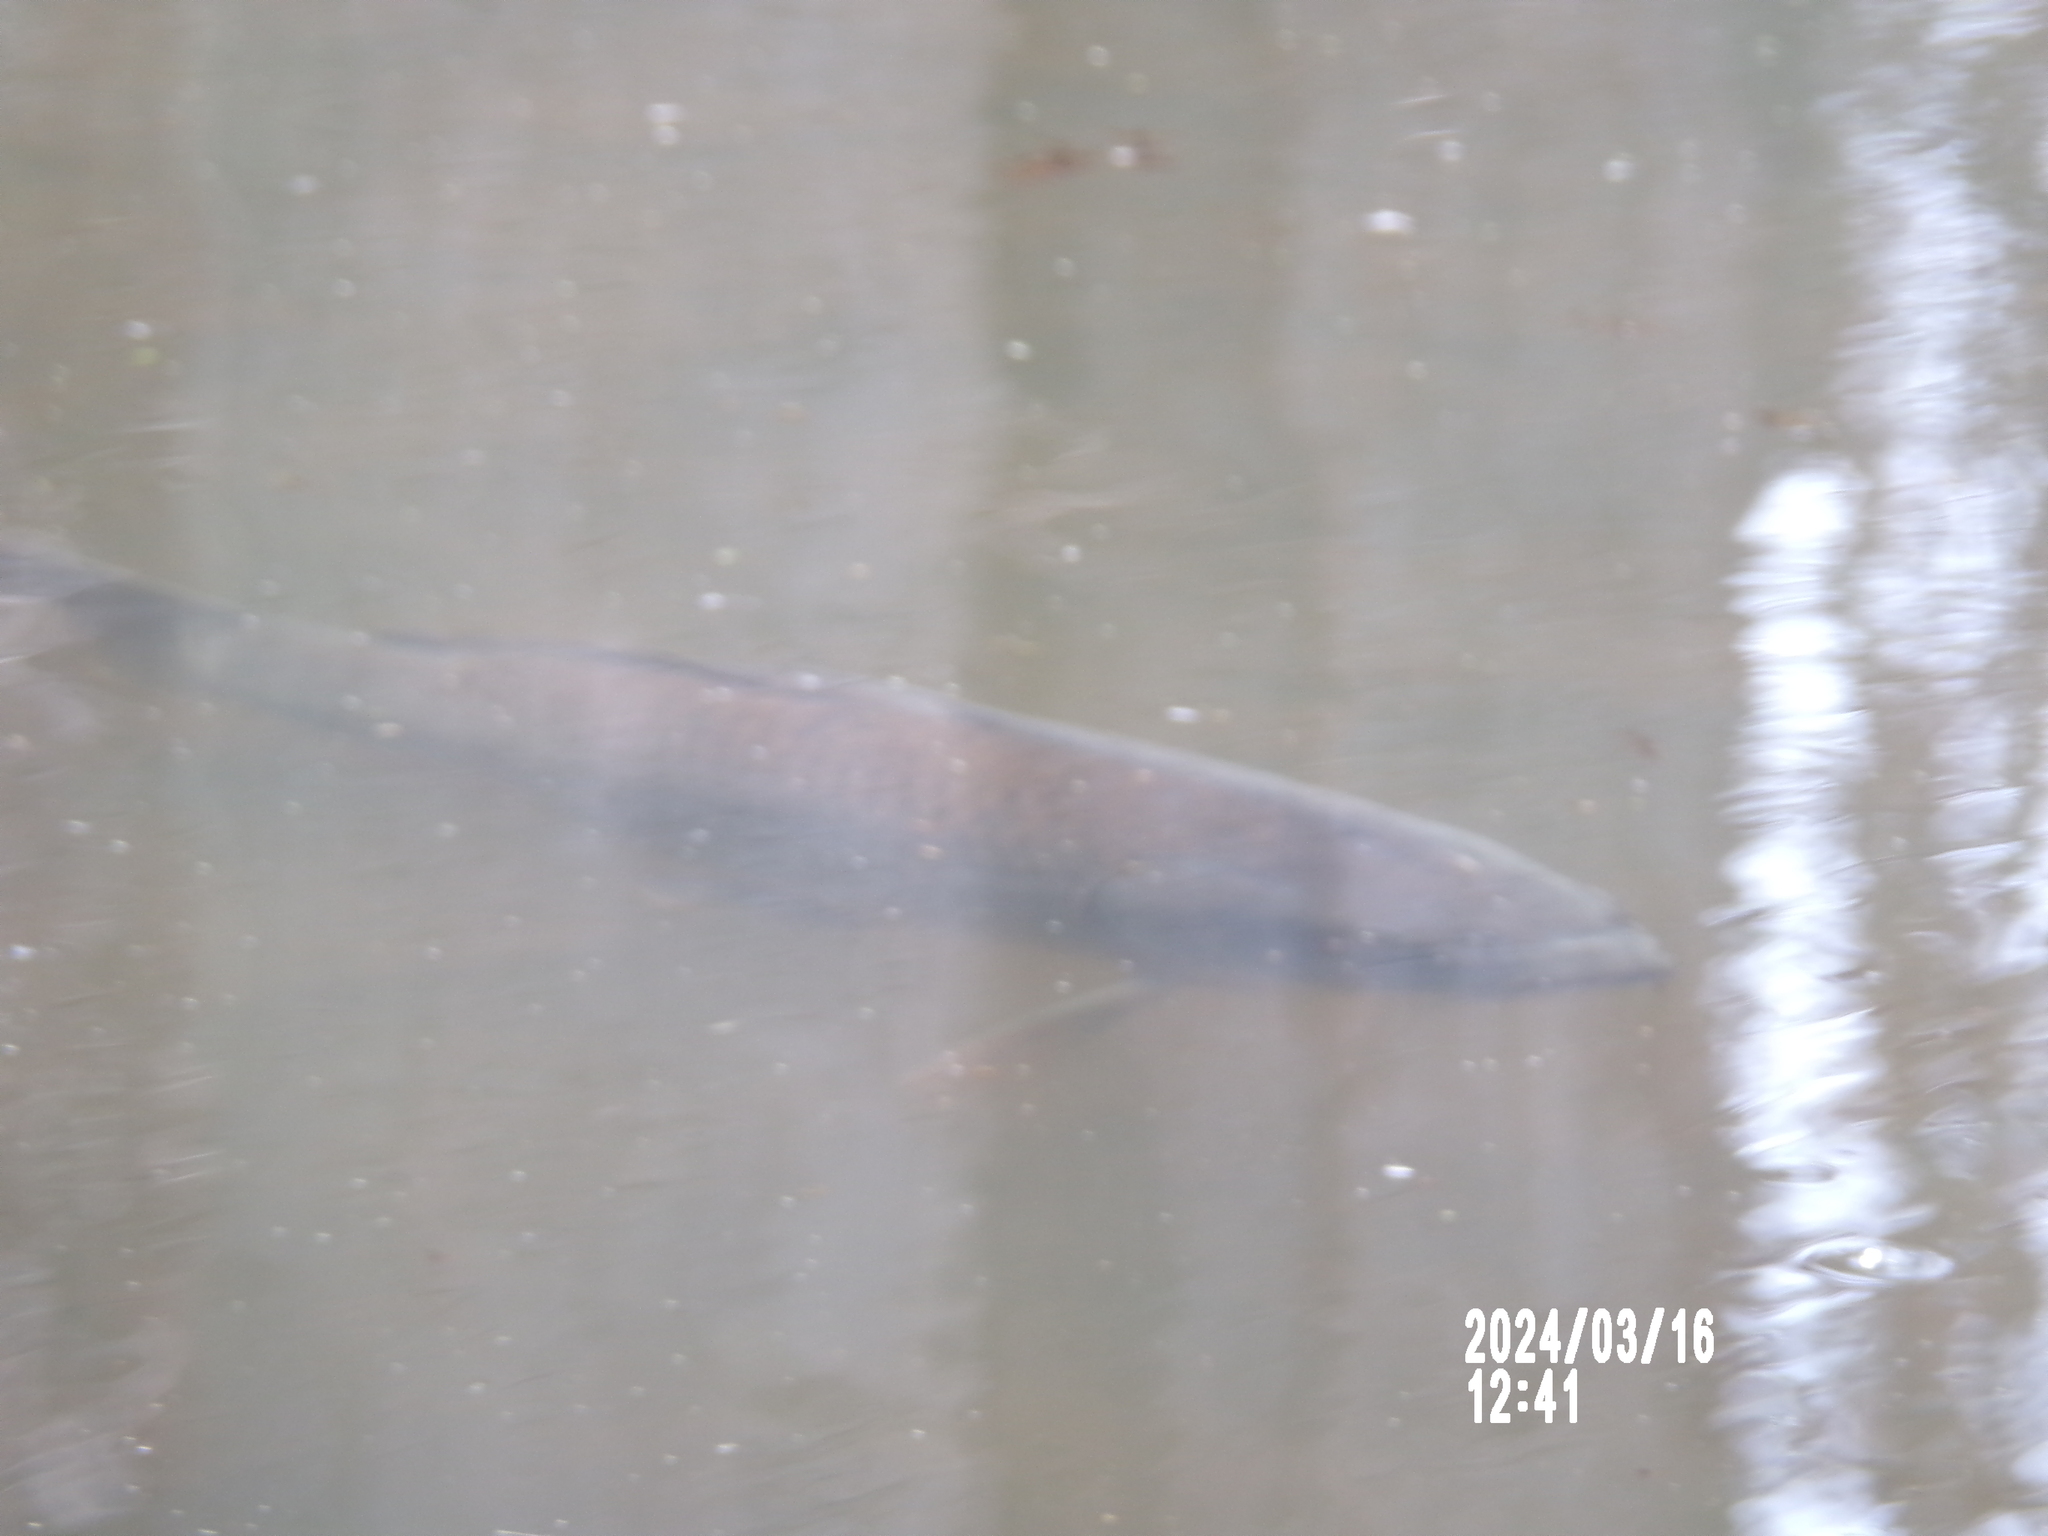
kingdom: Animalia
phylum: Chordata
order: Cypriniformes
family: Cyprinidae
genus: Cyprinus
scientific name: Cyprinus carpio
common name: Common carp
